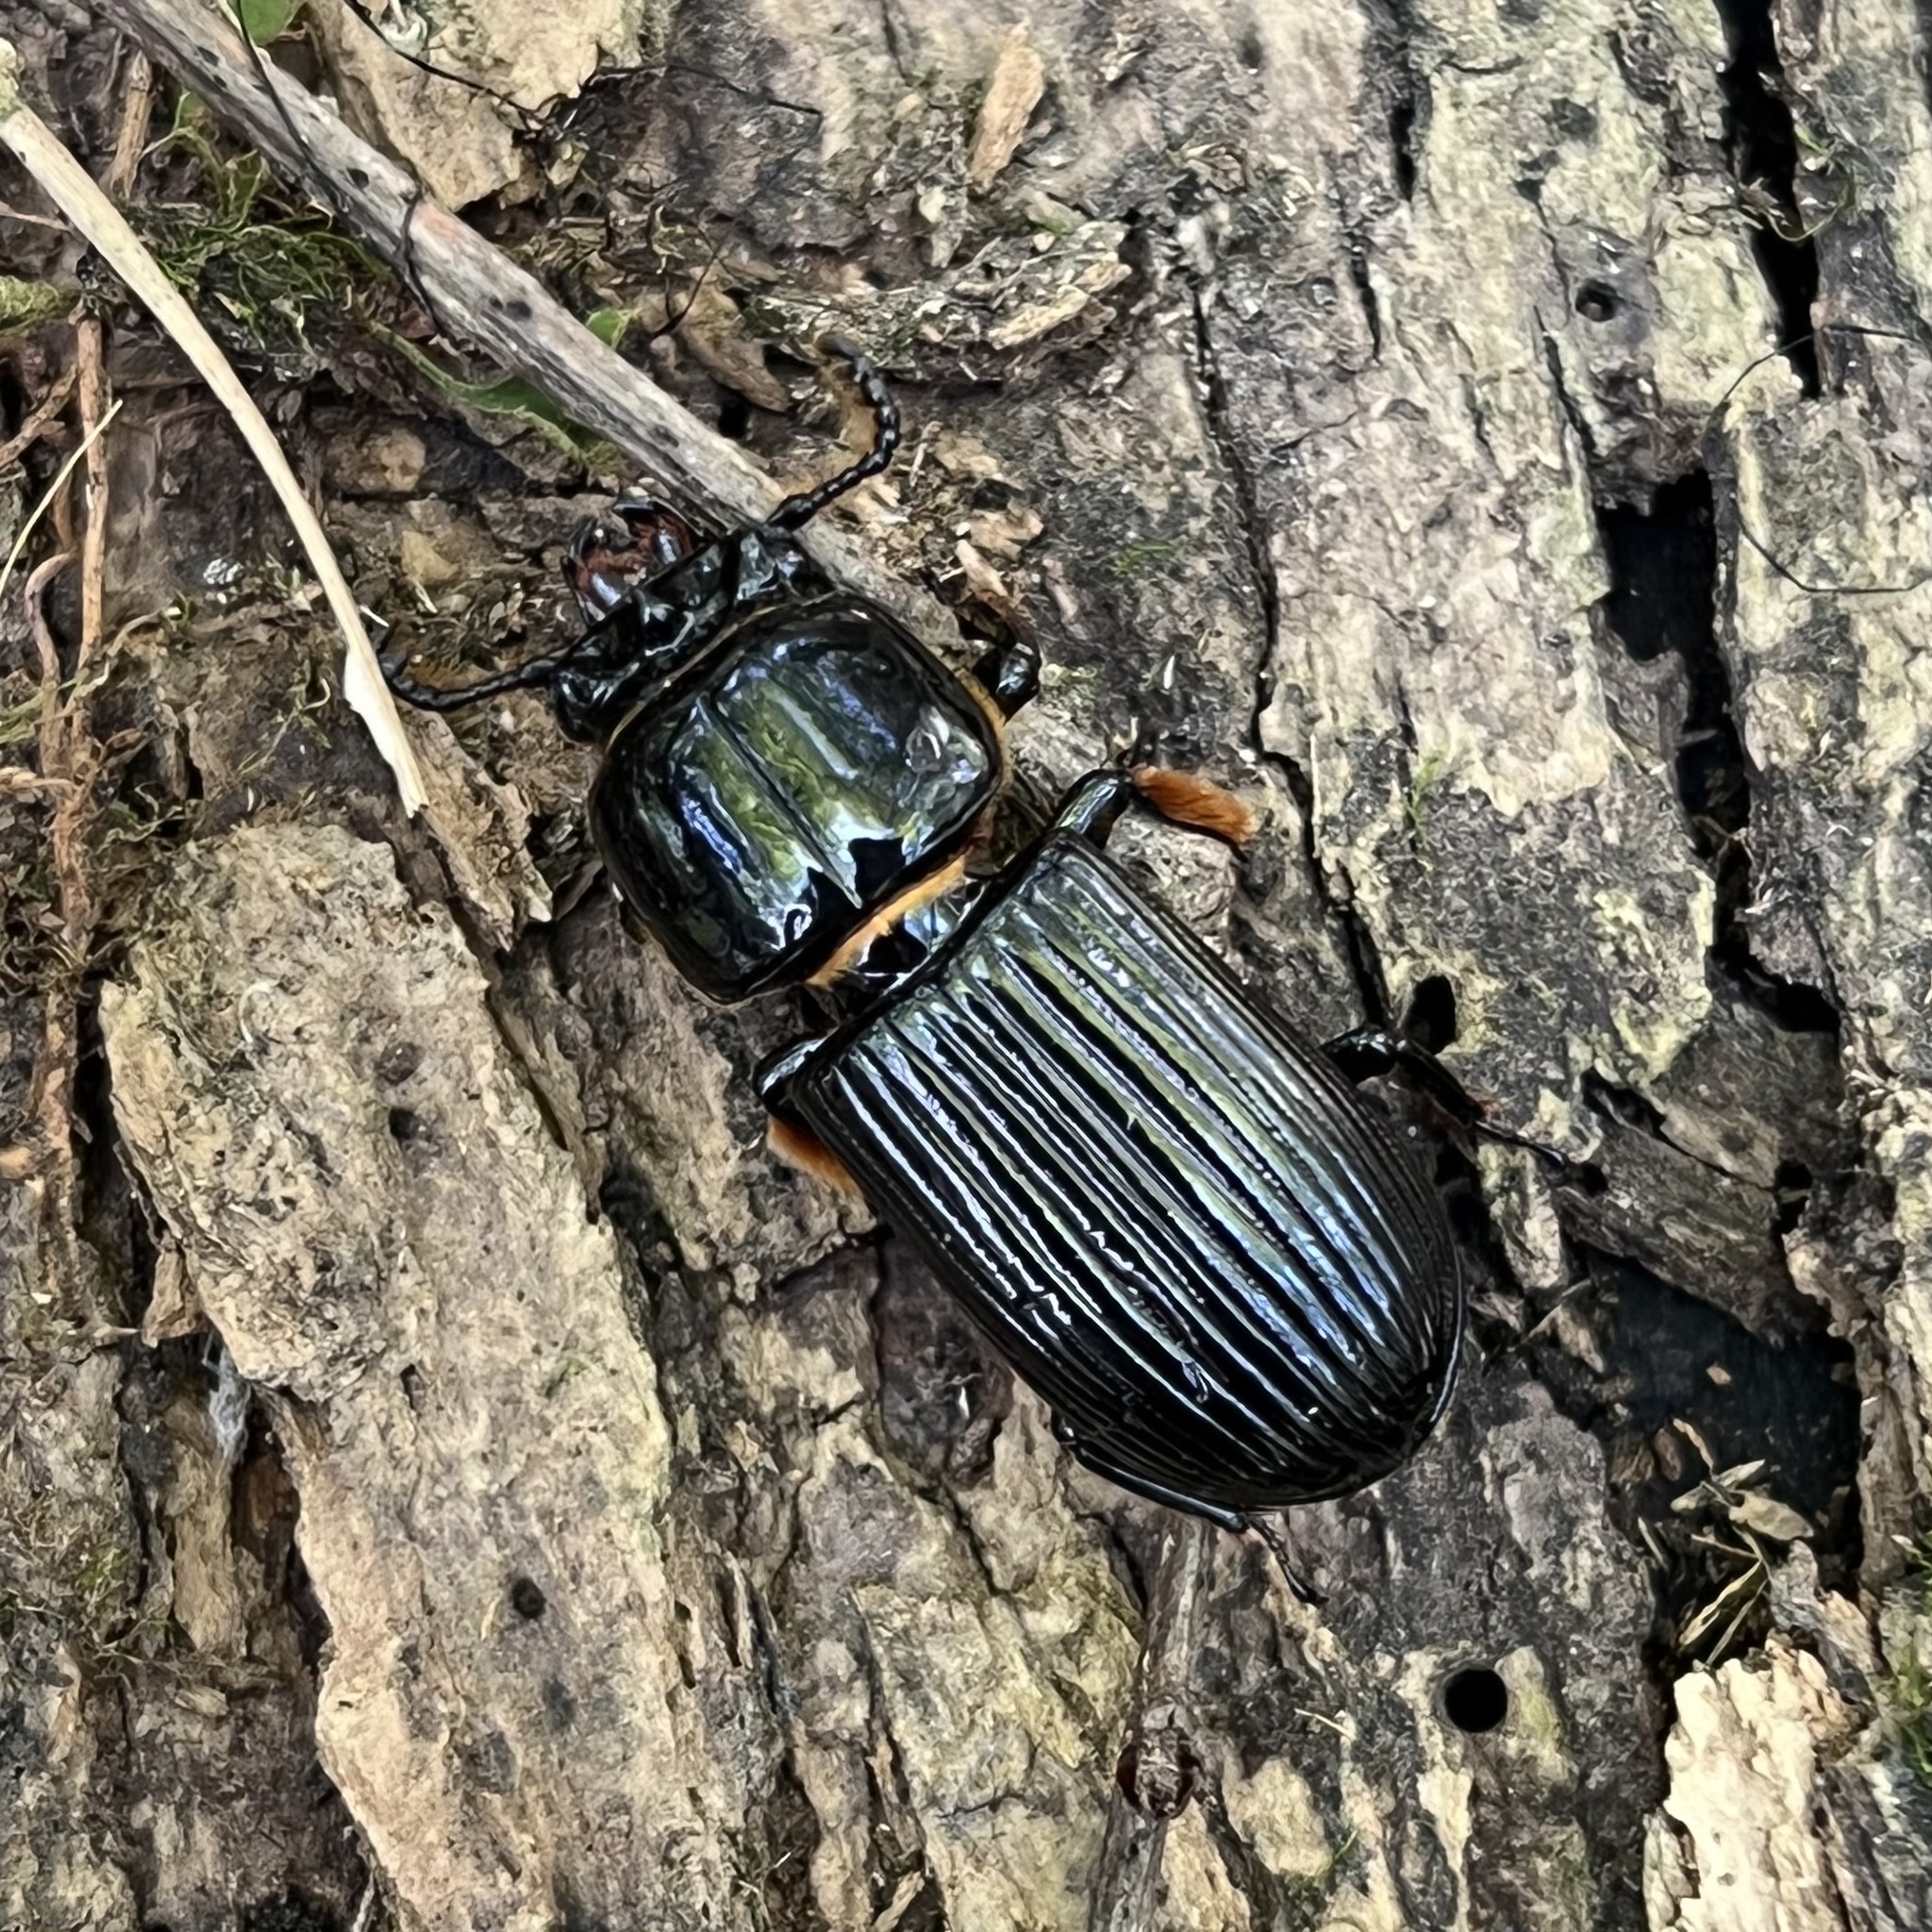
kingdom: Animalia
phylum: Arthropoda
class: Insecta
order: Coleoptera
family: Passalidae
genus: Odontotaenius
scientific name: Odontotaenius disjunctus
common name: Patent leather beetle
